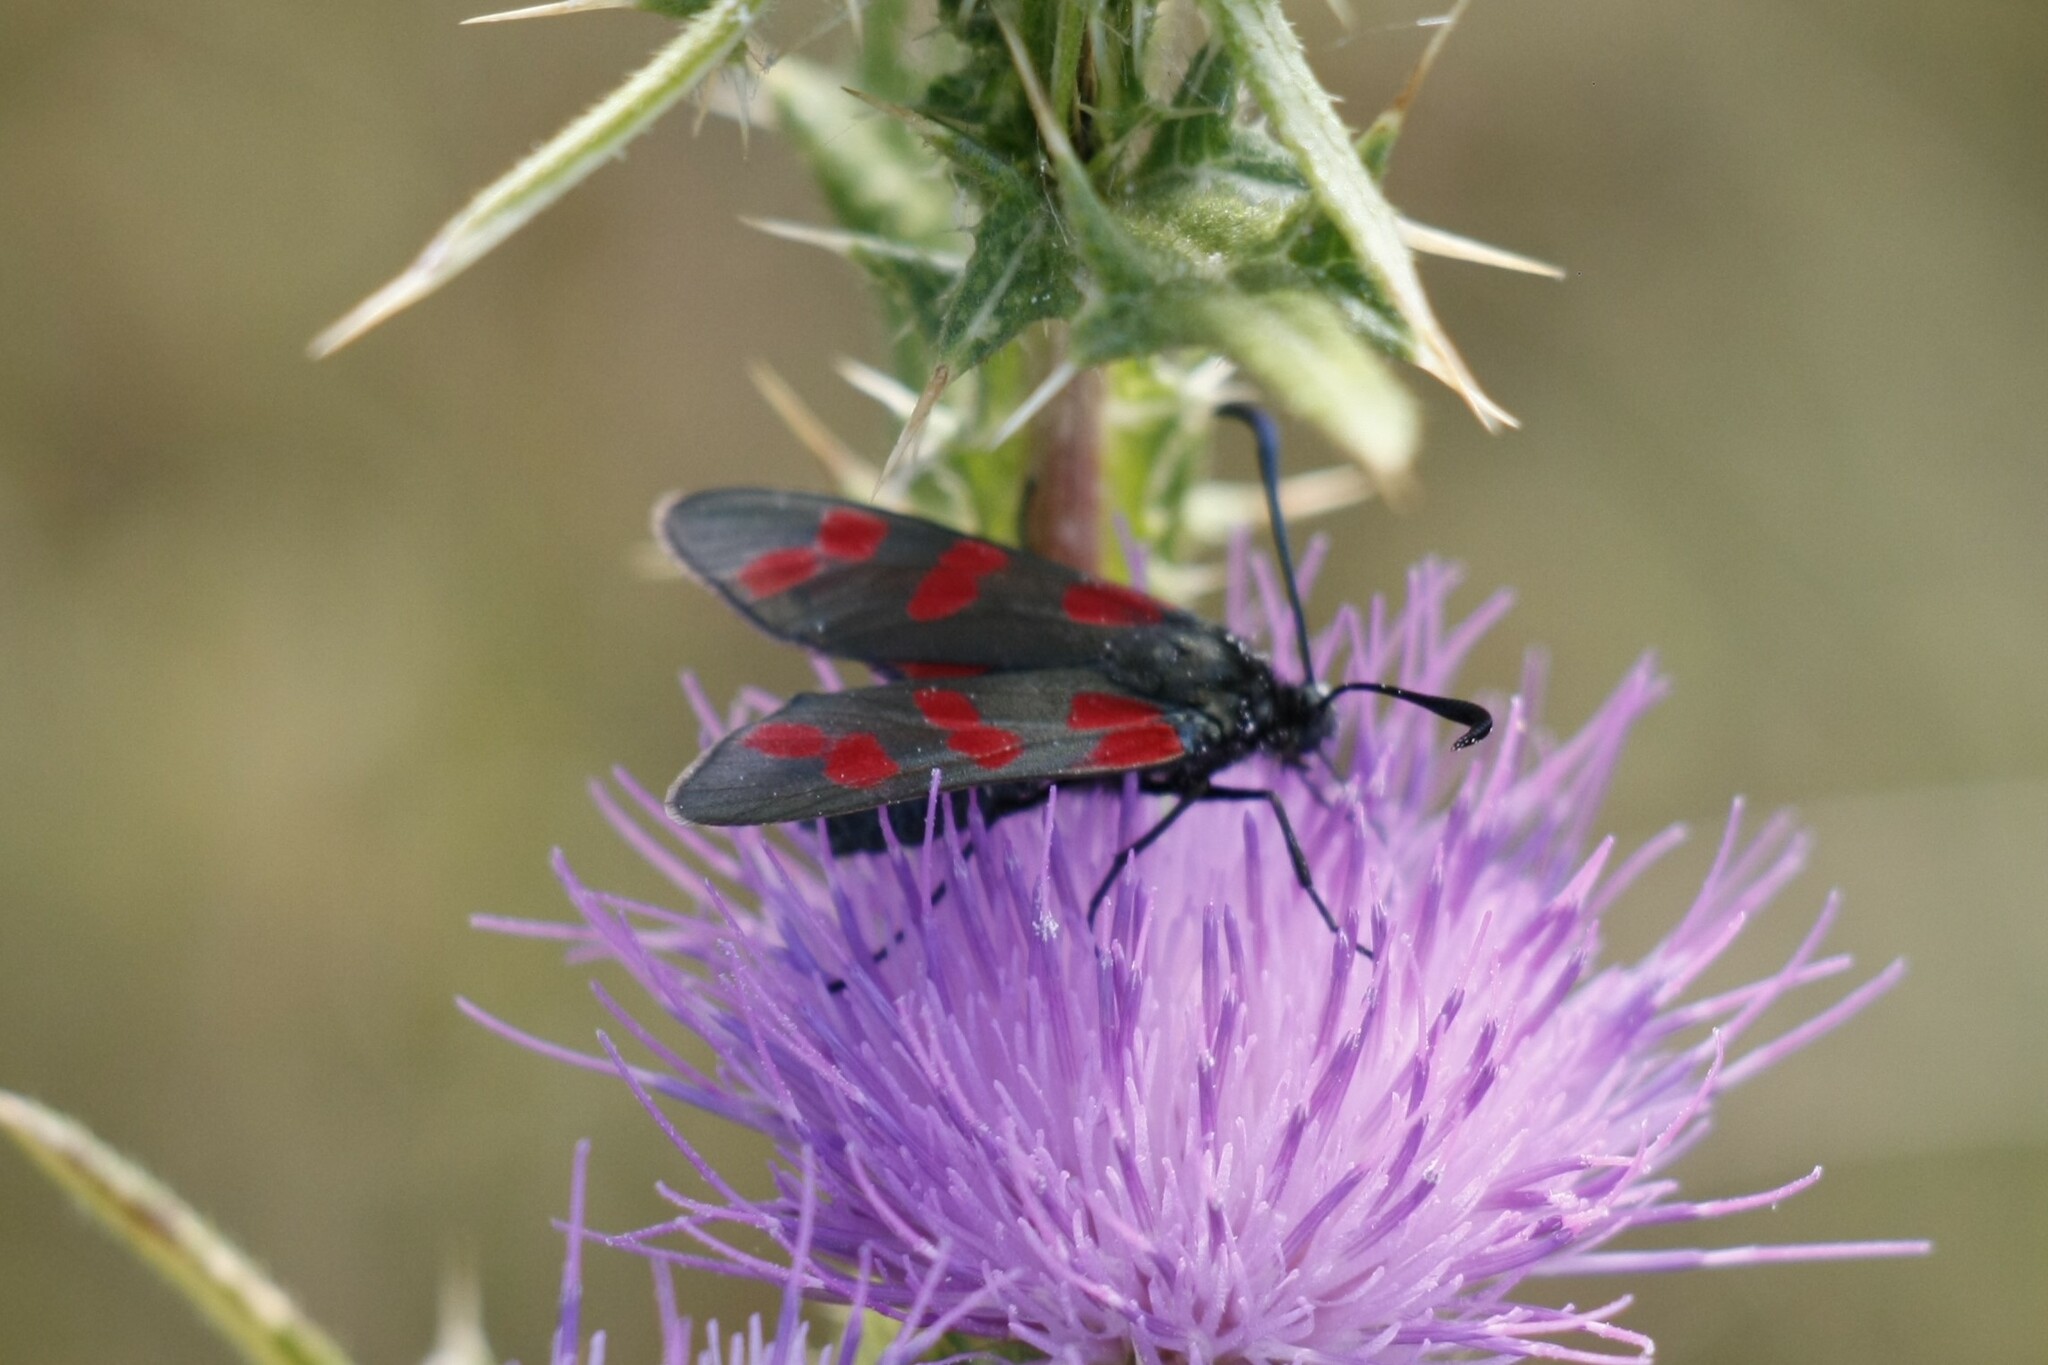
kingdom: Animalia
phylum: Arthropoda
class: Insecta
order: Lepidoptera
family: Zygaenidae
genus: Zygaena
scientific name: Zygaena filipendulae
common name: Six-spot burnet
